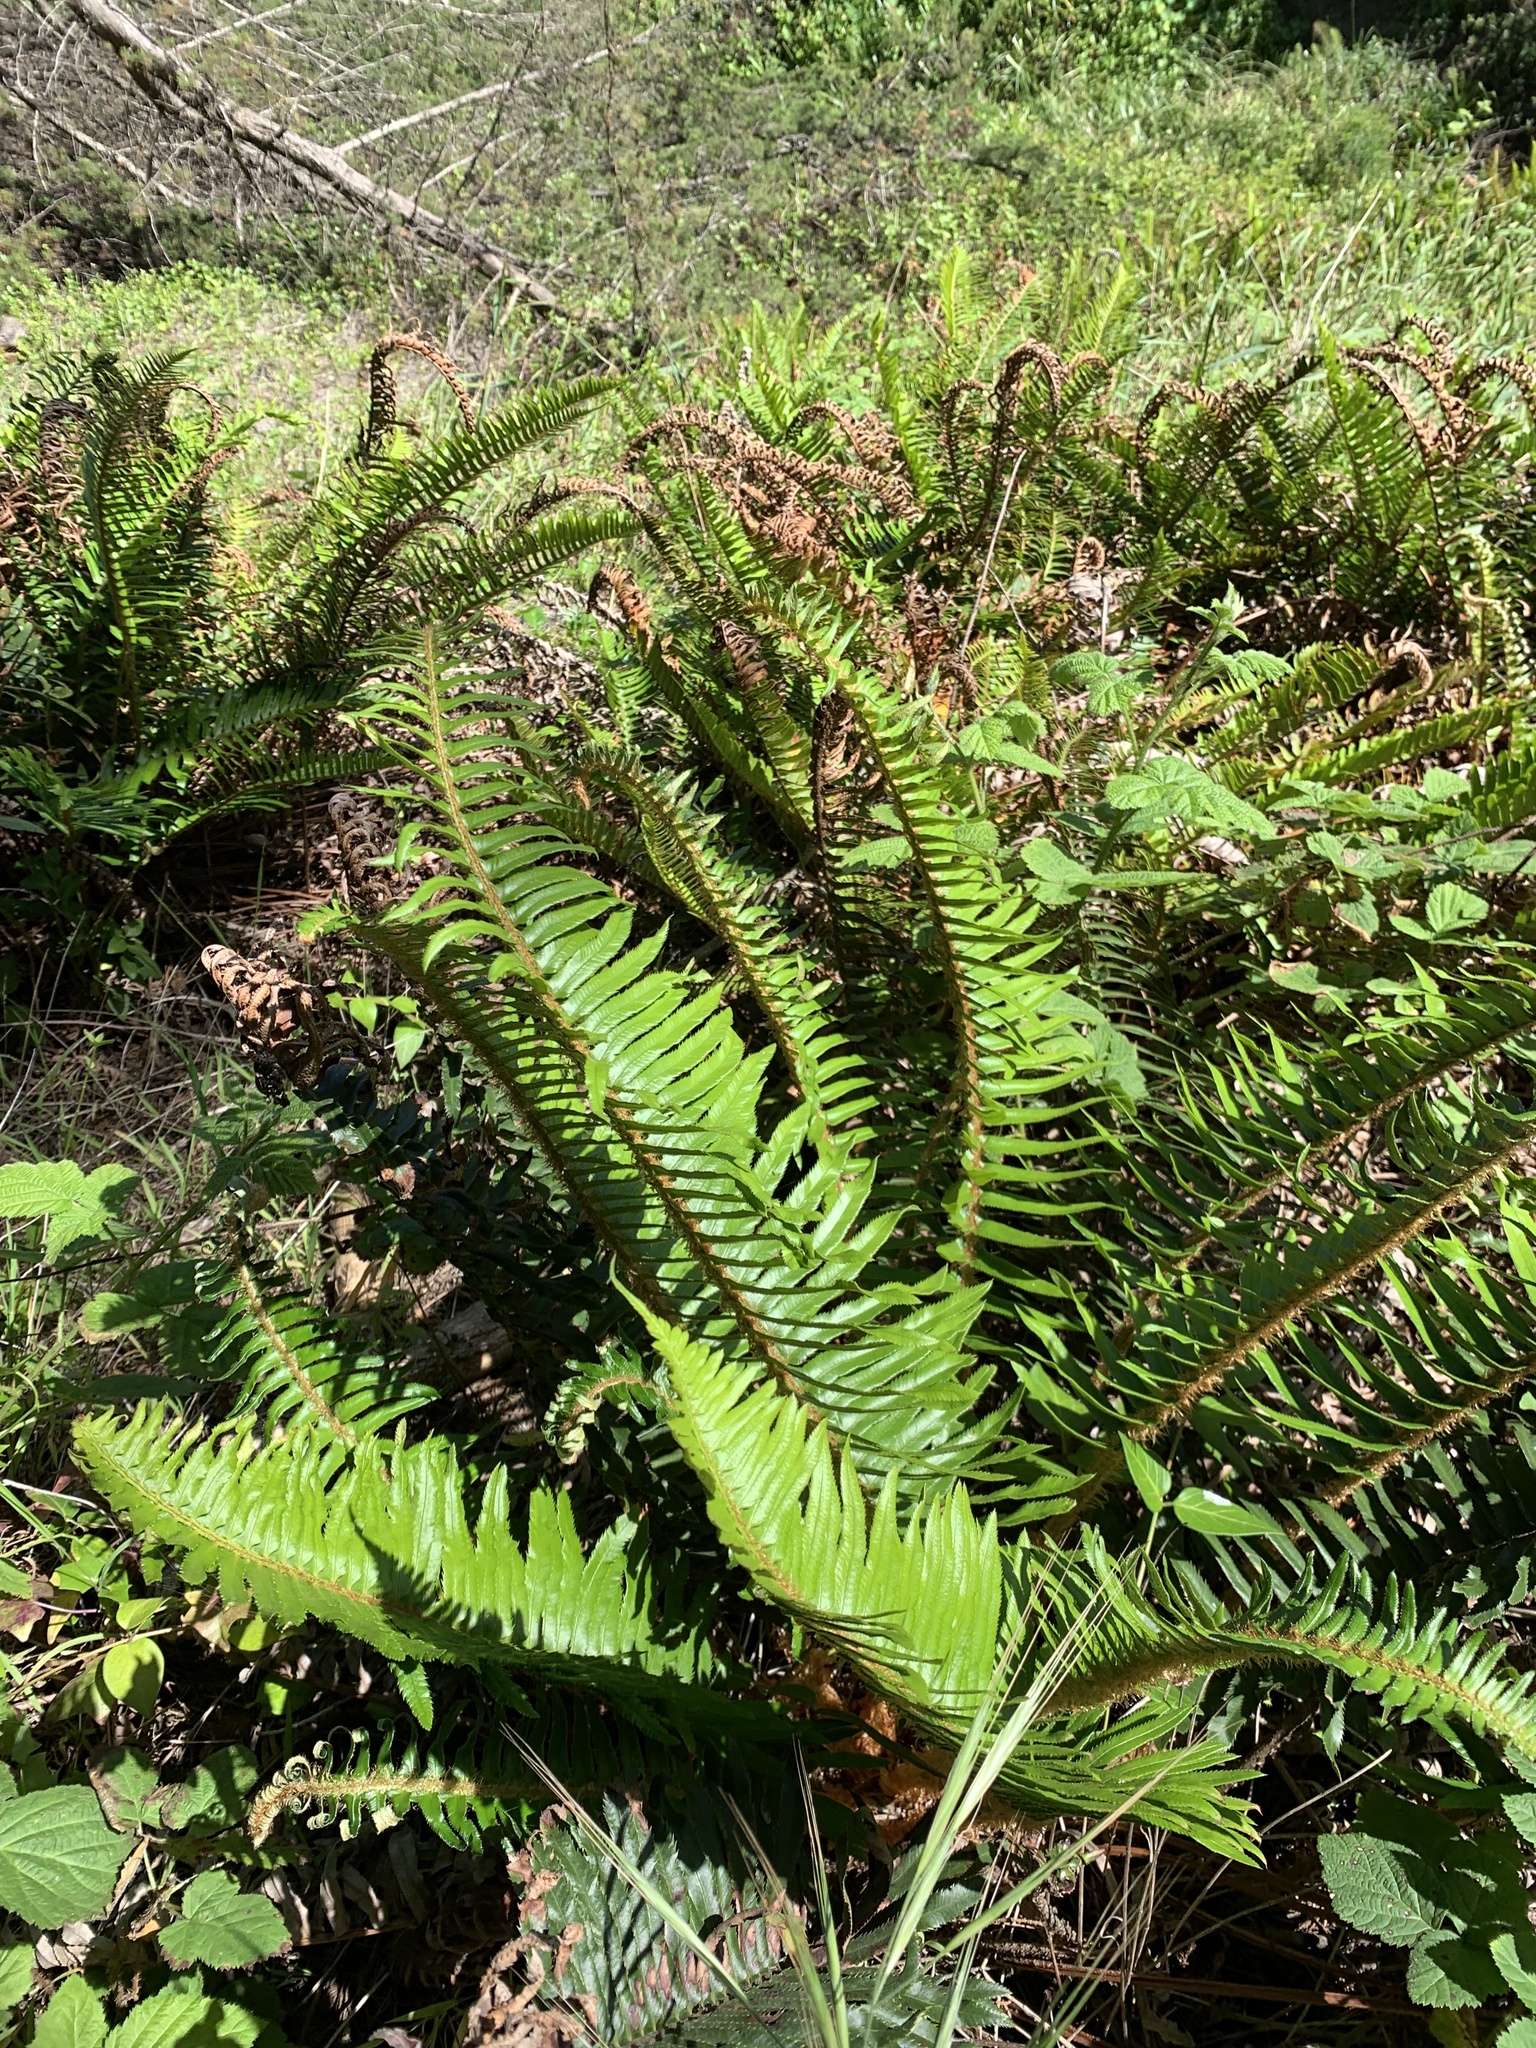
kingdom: Plantae
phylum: Tracheophyta
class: Polypodiopsida
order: Polypodiales
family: Dryopteridaceae
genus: Polystichum
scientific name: Polystichum munitum
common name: Western sword-fern
